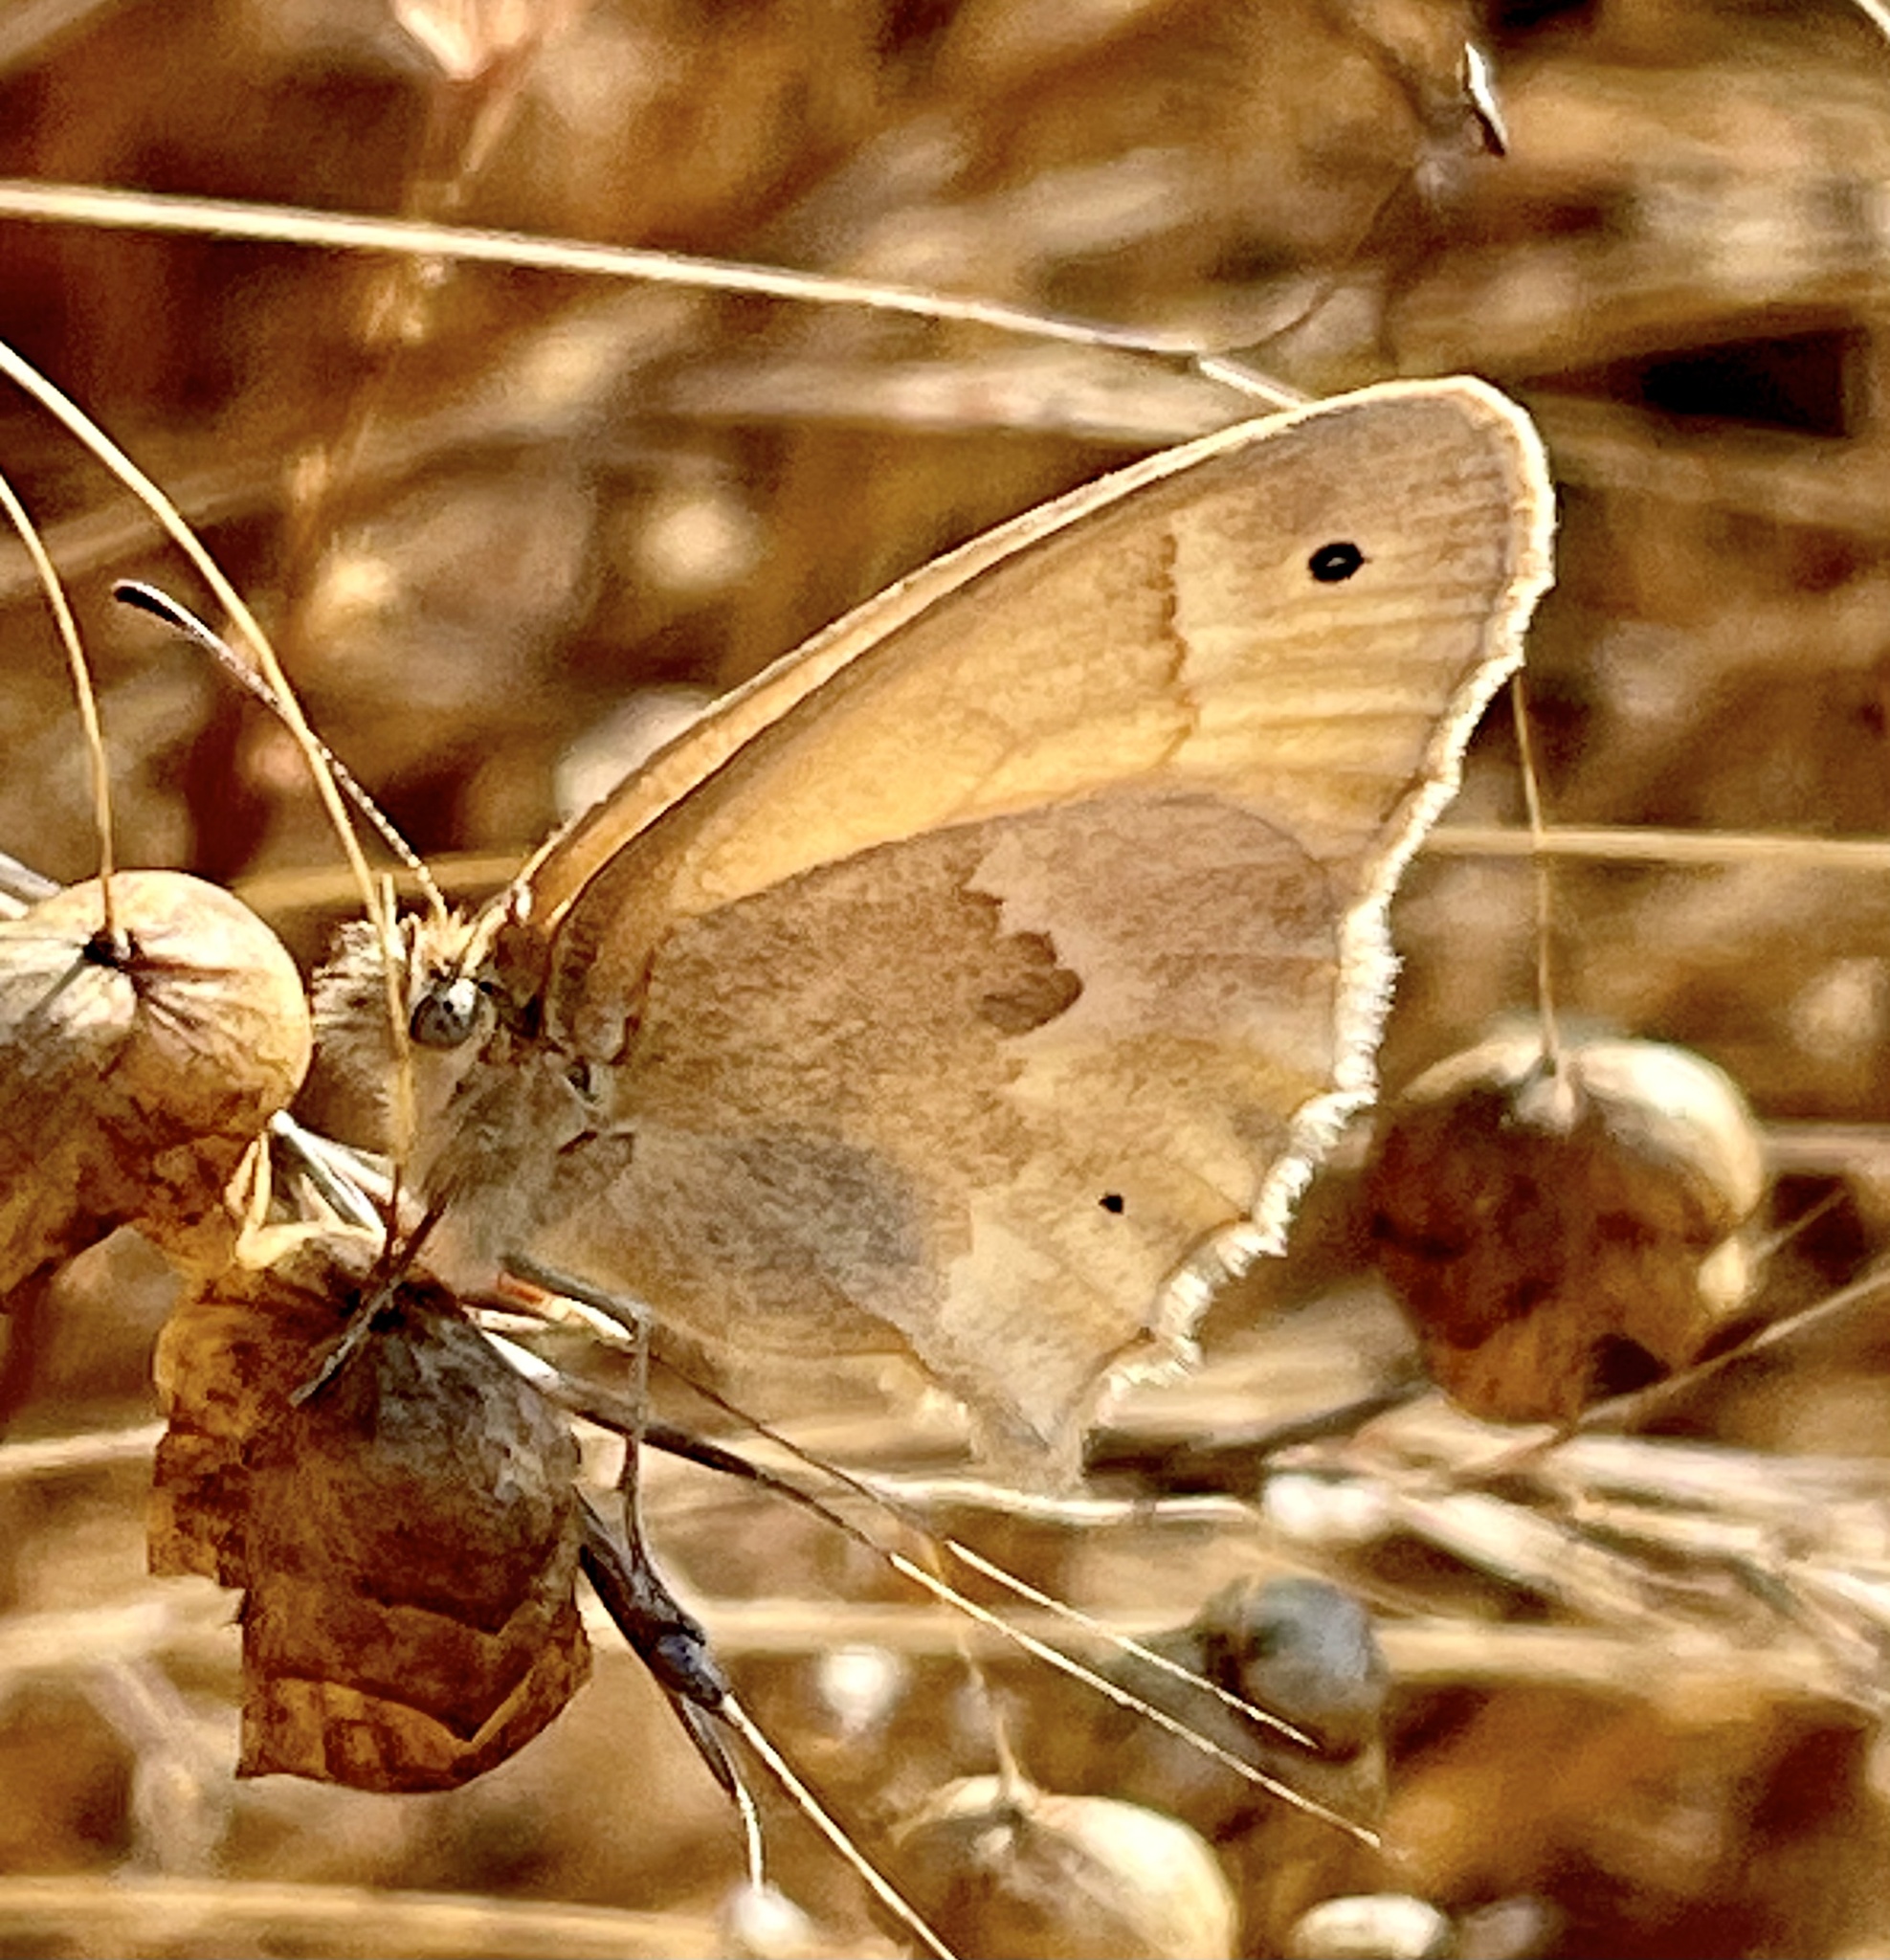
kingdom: Animalia
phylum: Arthropoda
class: Insecta
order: Lepidoptera
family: Nymphalidae
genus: Coenonympha
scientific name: Coenonympha california
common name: Common ringlet
